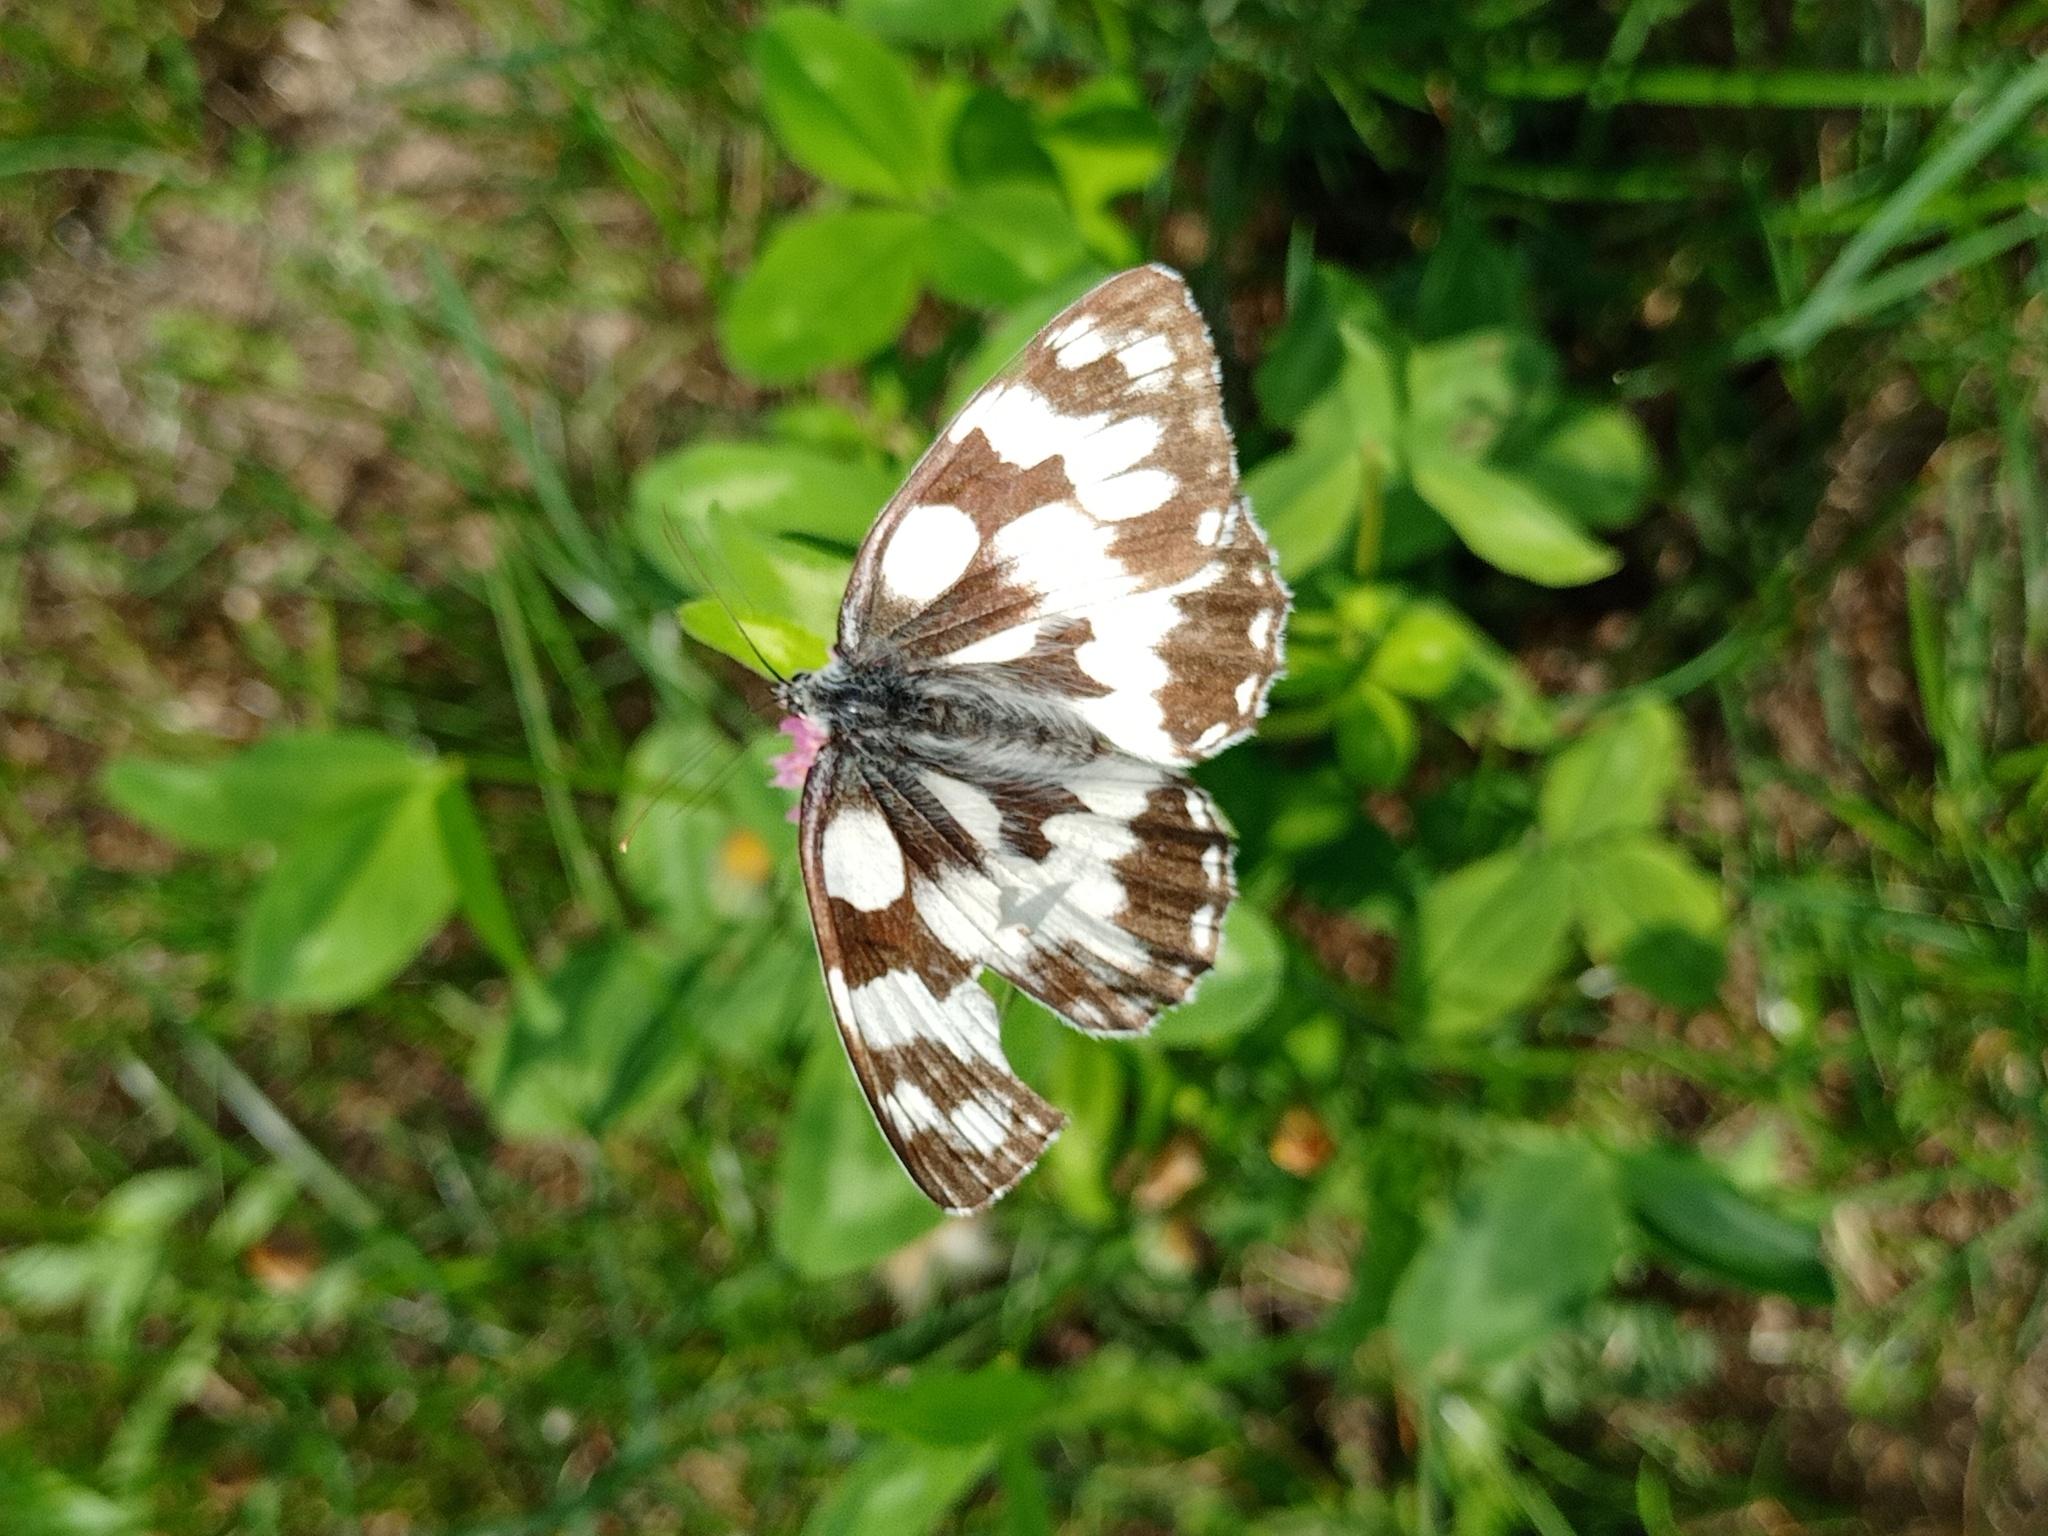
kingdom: Animalia
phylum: Arthropoda
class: Insecta
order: Lepidoptera
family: Nymphalidae
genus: Melanargia
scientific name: Melanargia galathea
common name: Marbled white
